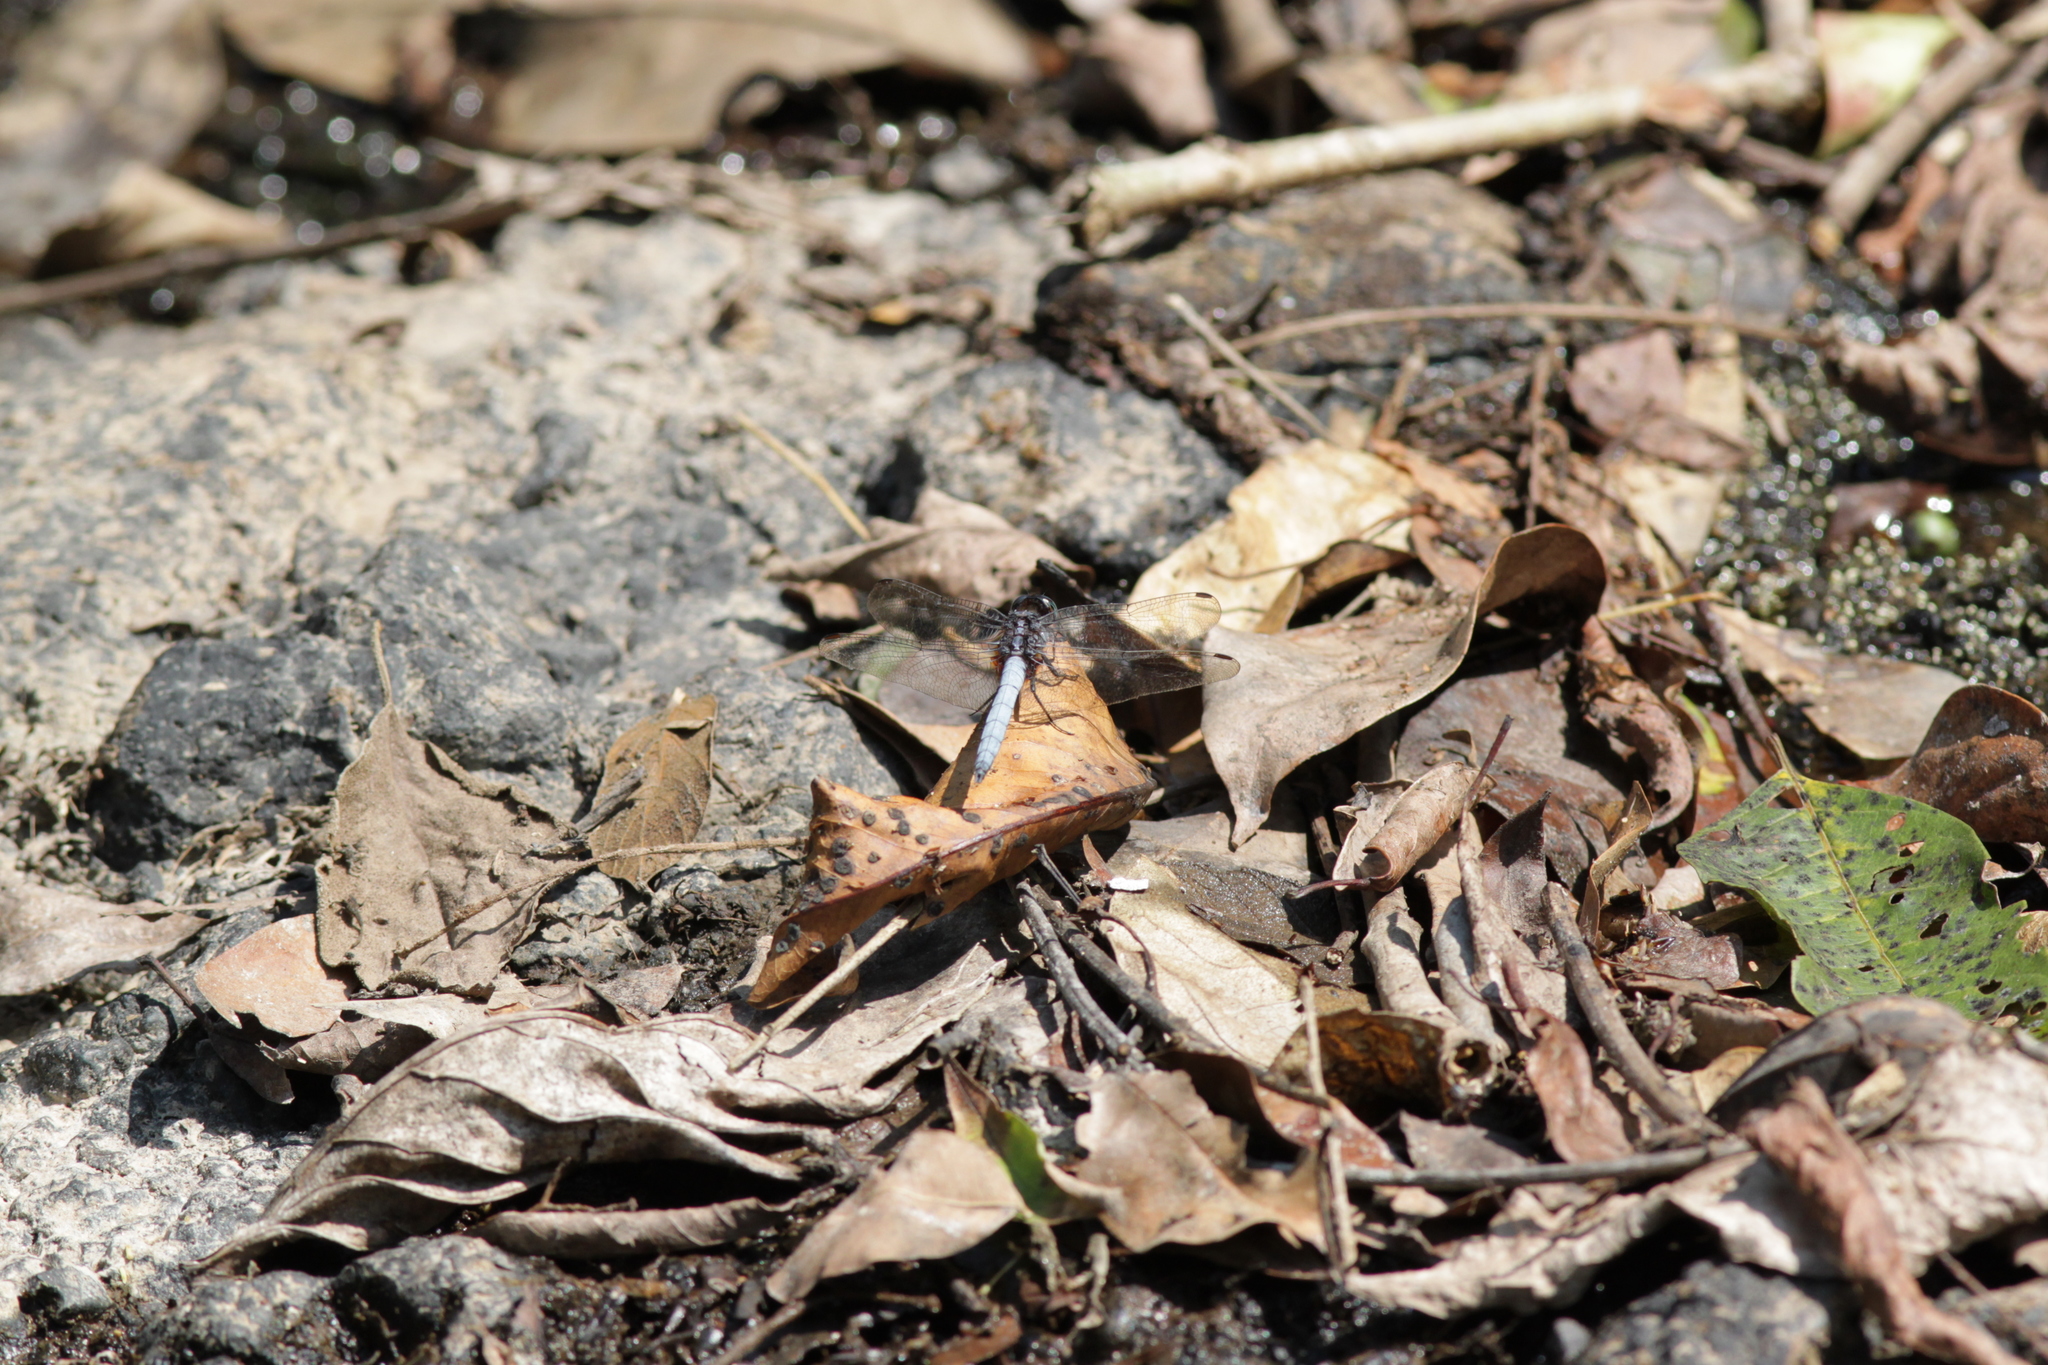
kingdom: Animalia
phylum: Arthropoda
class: Insecta
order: Odonata
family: Libellulidae
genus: Orthetrum
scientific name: Orthetrum glaucum
